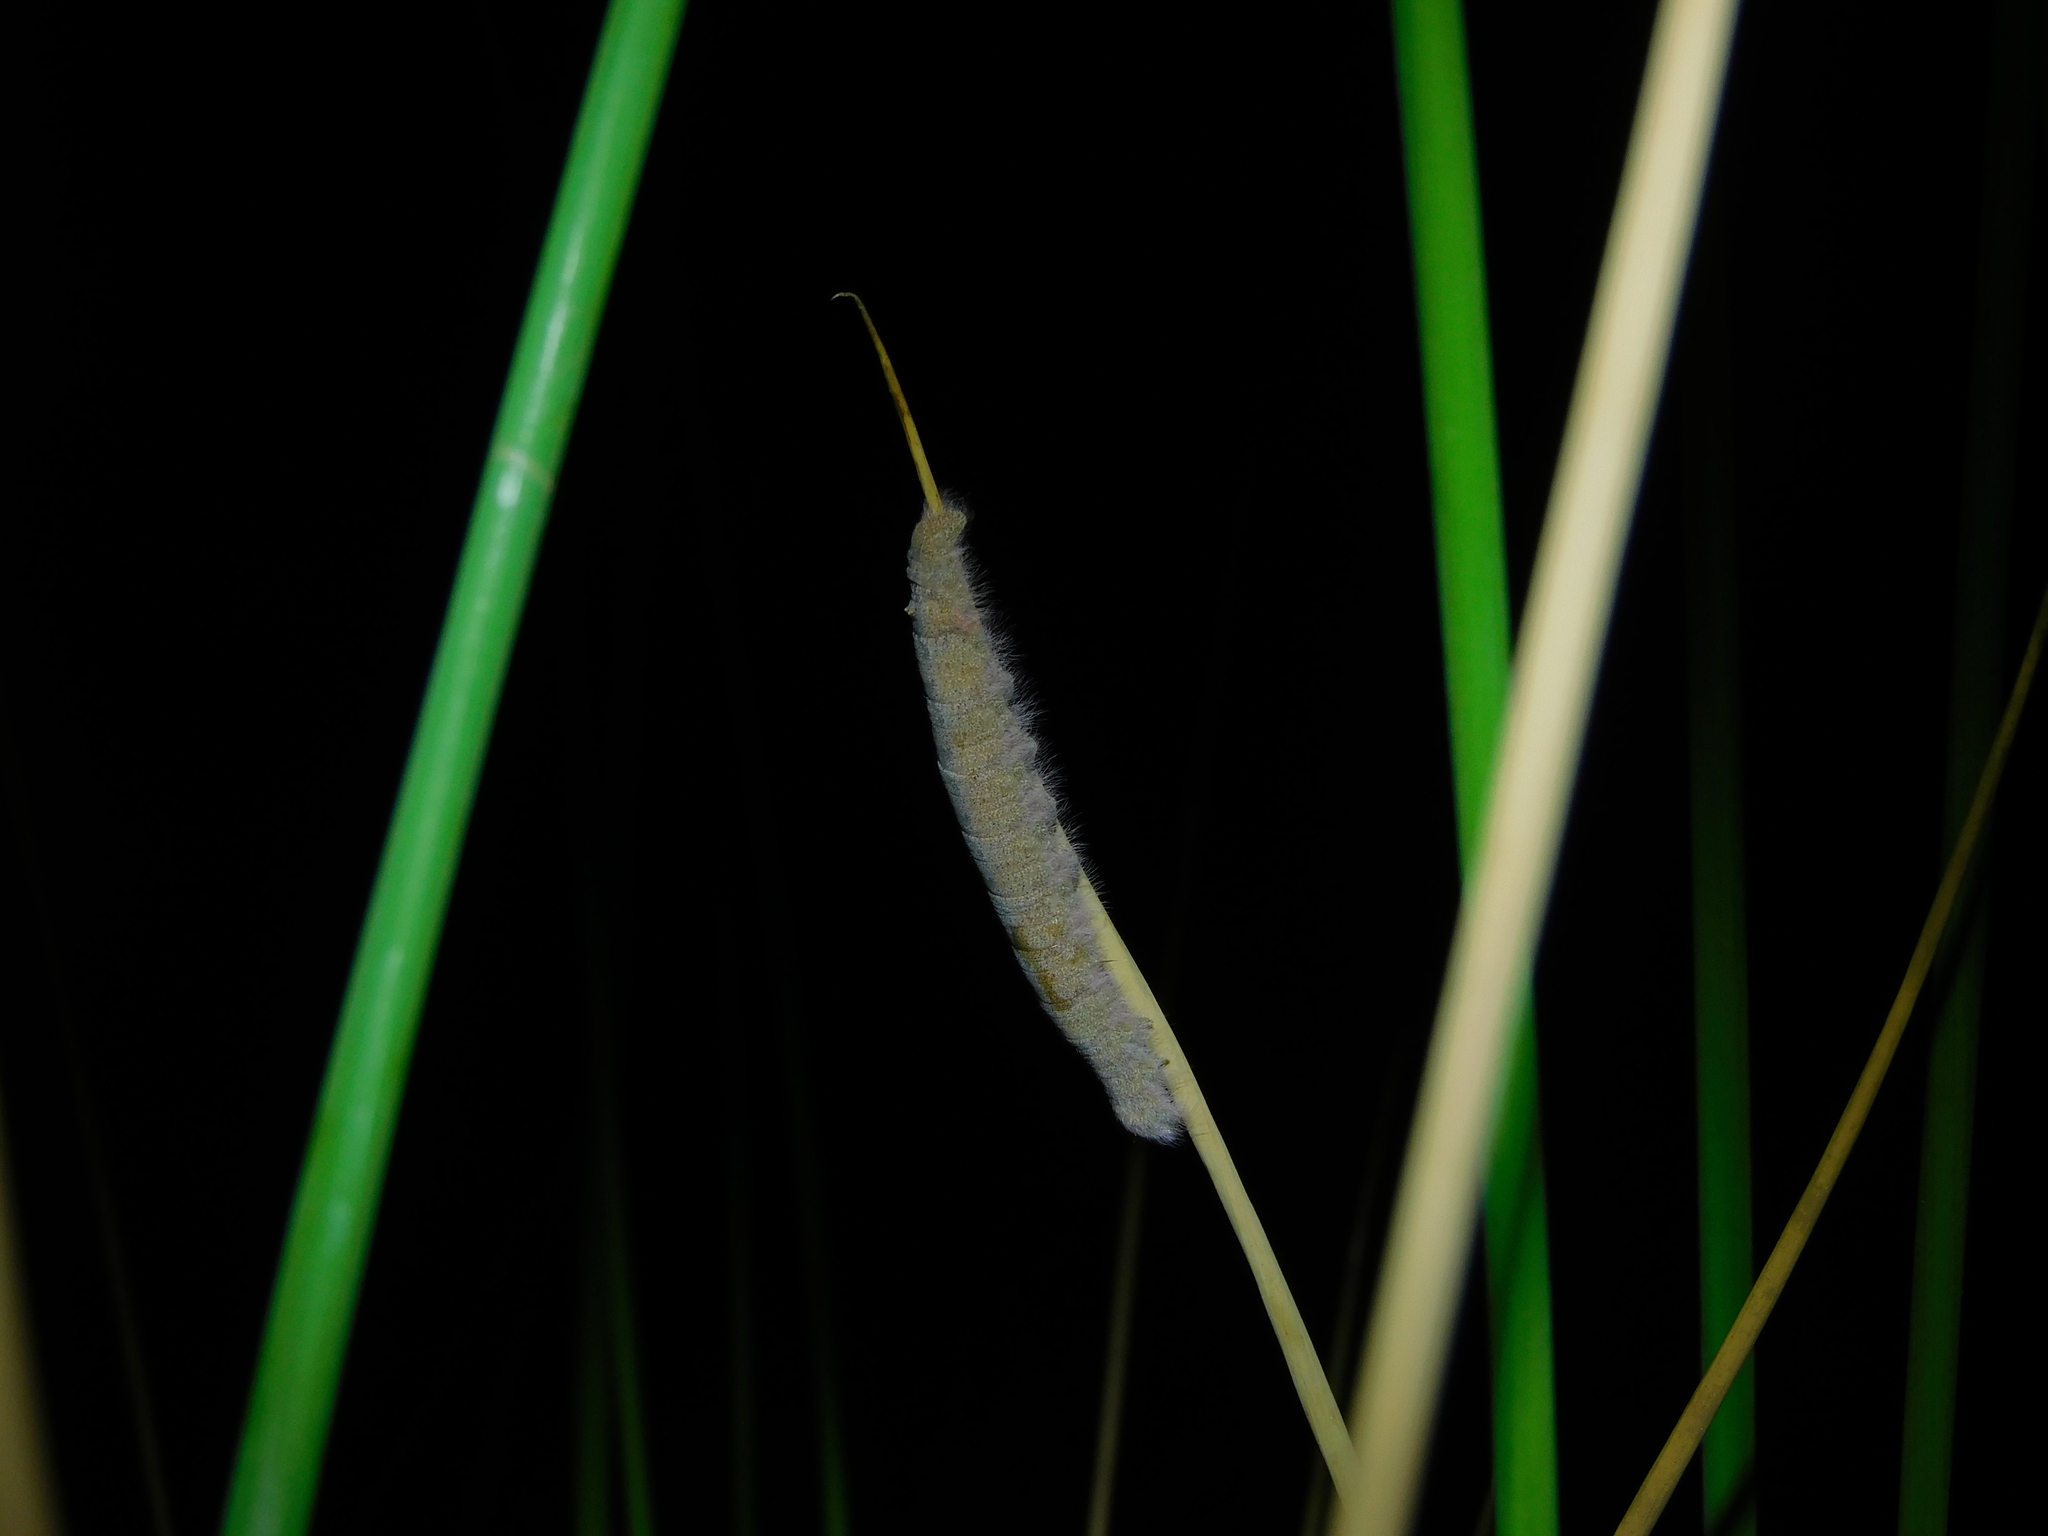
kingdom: Animalia
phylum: Arthropoda
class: Insecta
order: Lepidoptera
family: Lasiocampidae
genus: Pararguda
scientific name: Pararguda nasuta
